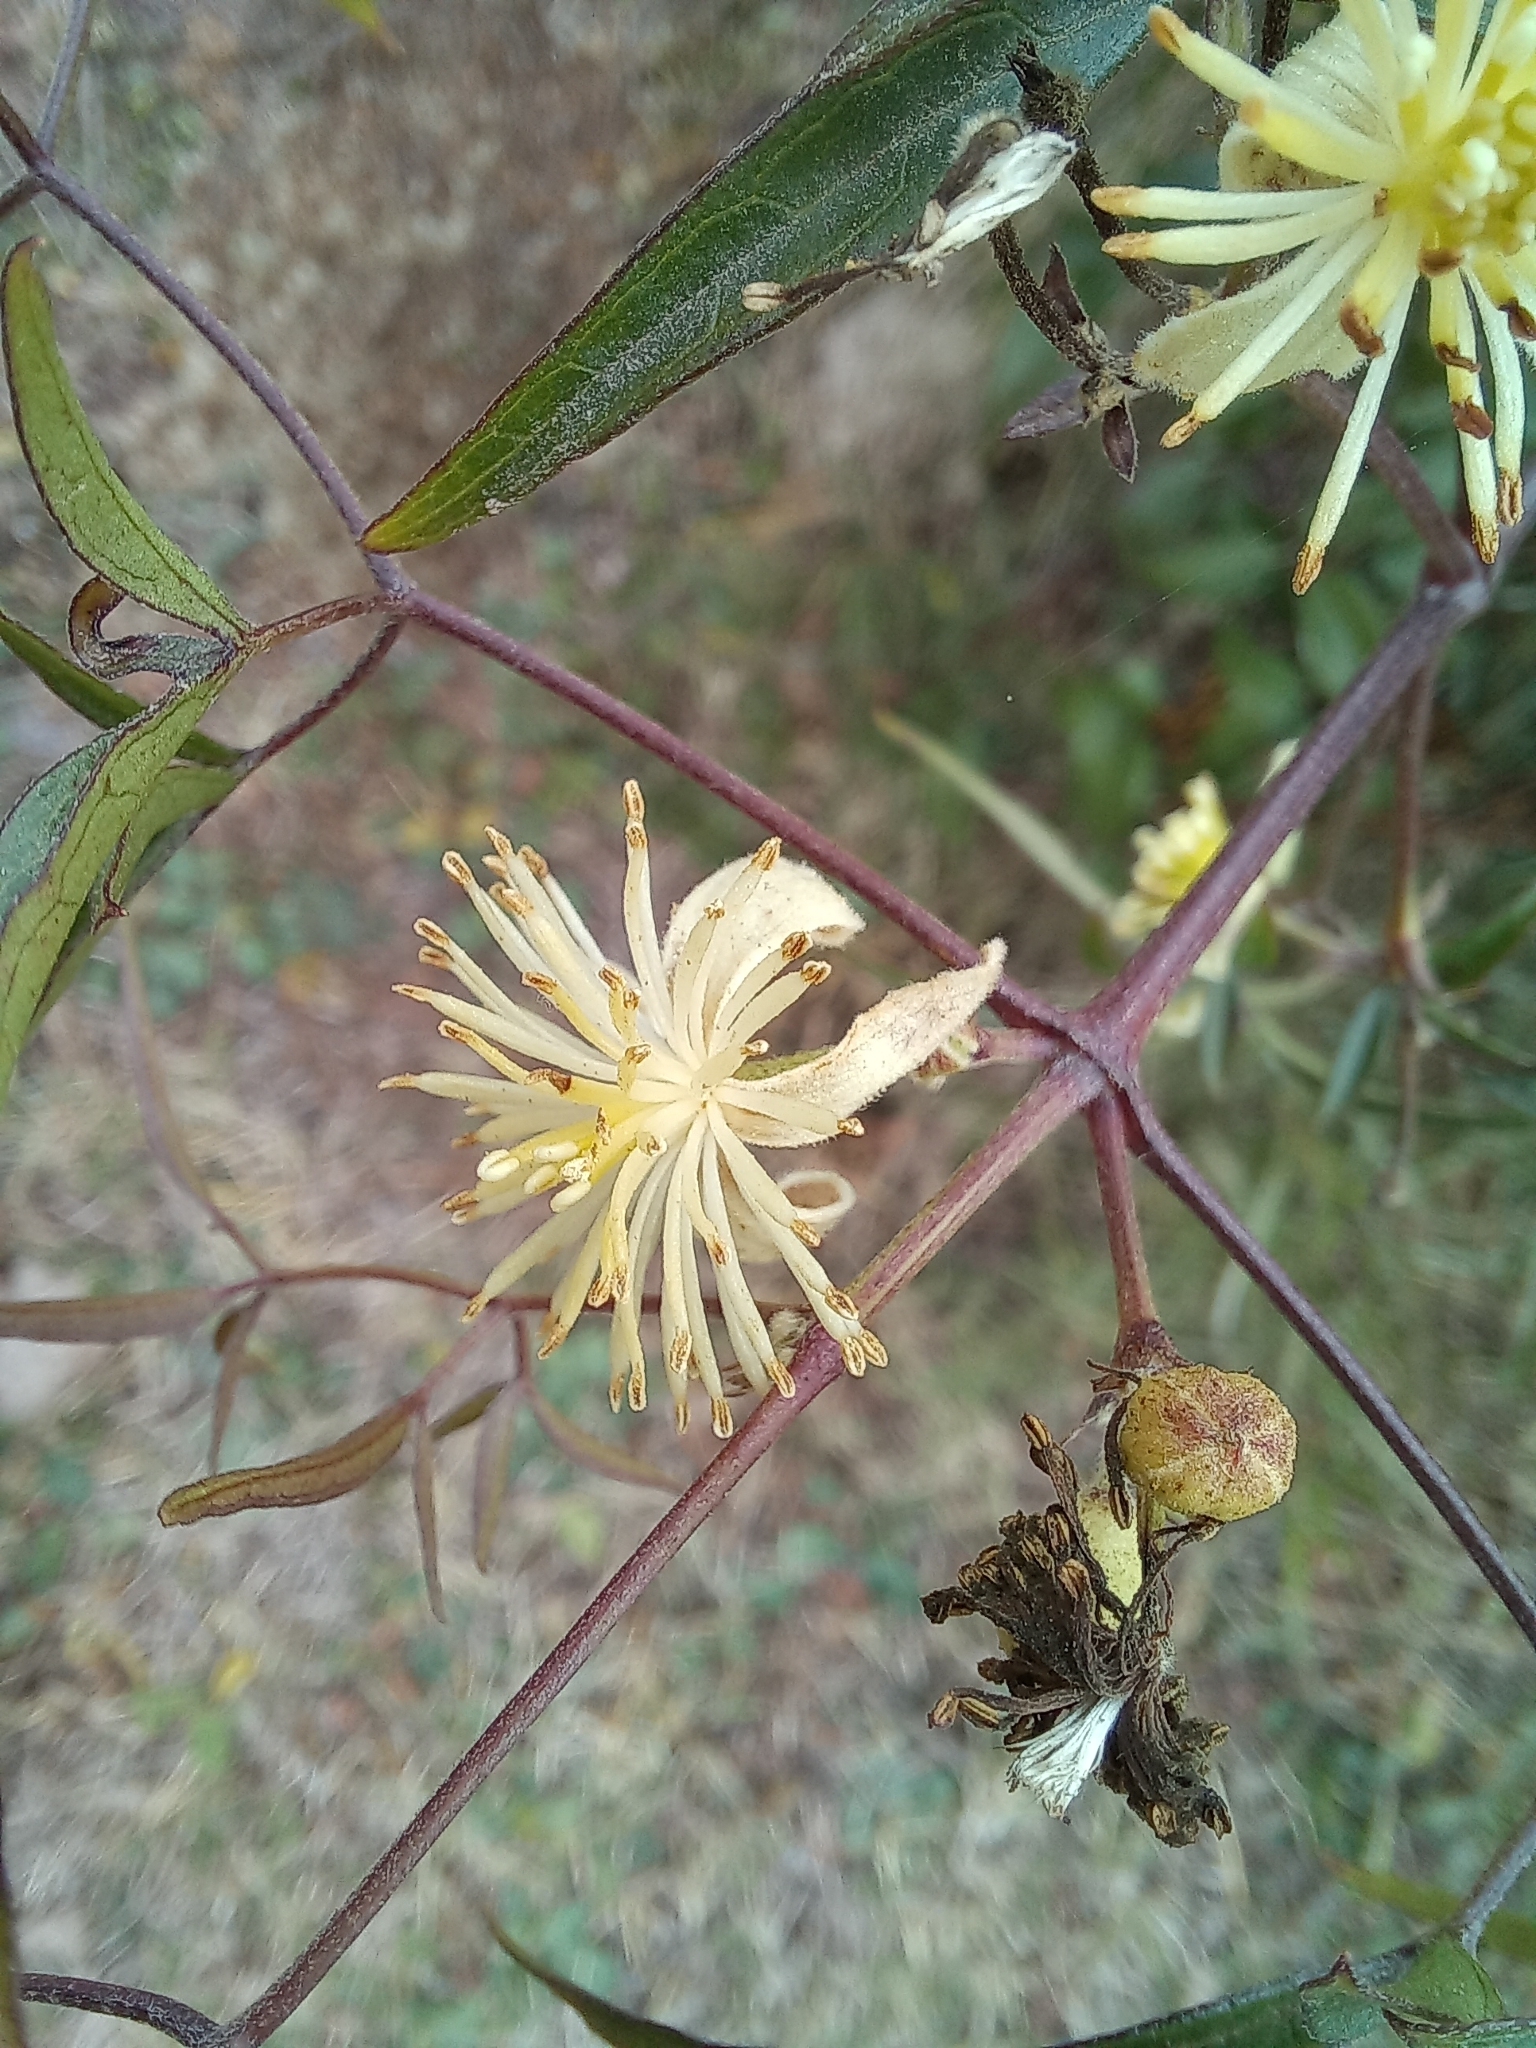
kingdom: Plantae
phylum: Tracheophyta
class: Magnoliopsida
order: Ranunculales
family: Ranunculaceae
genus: Clematis
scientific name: Clematis montevidensis
